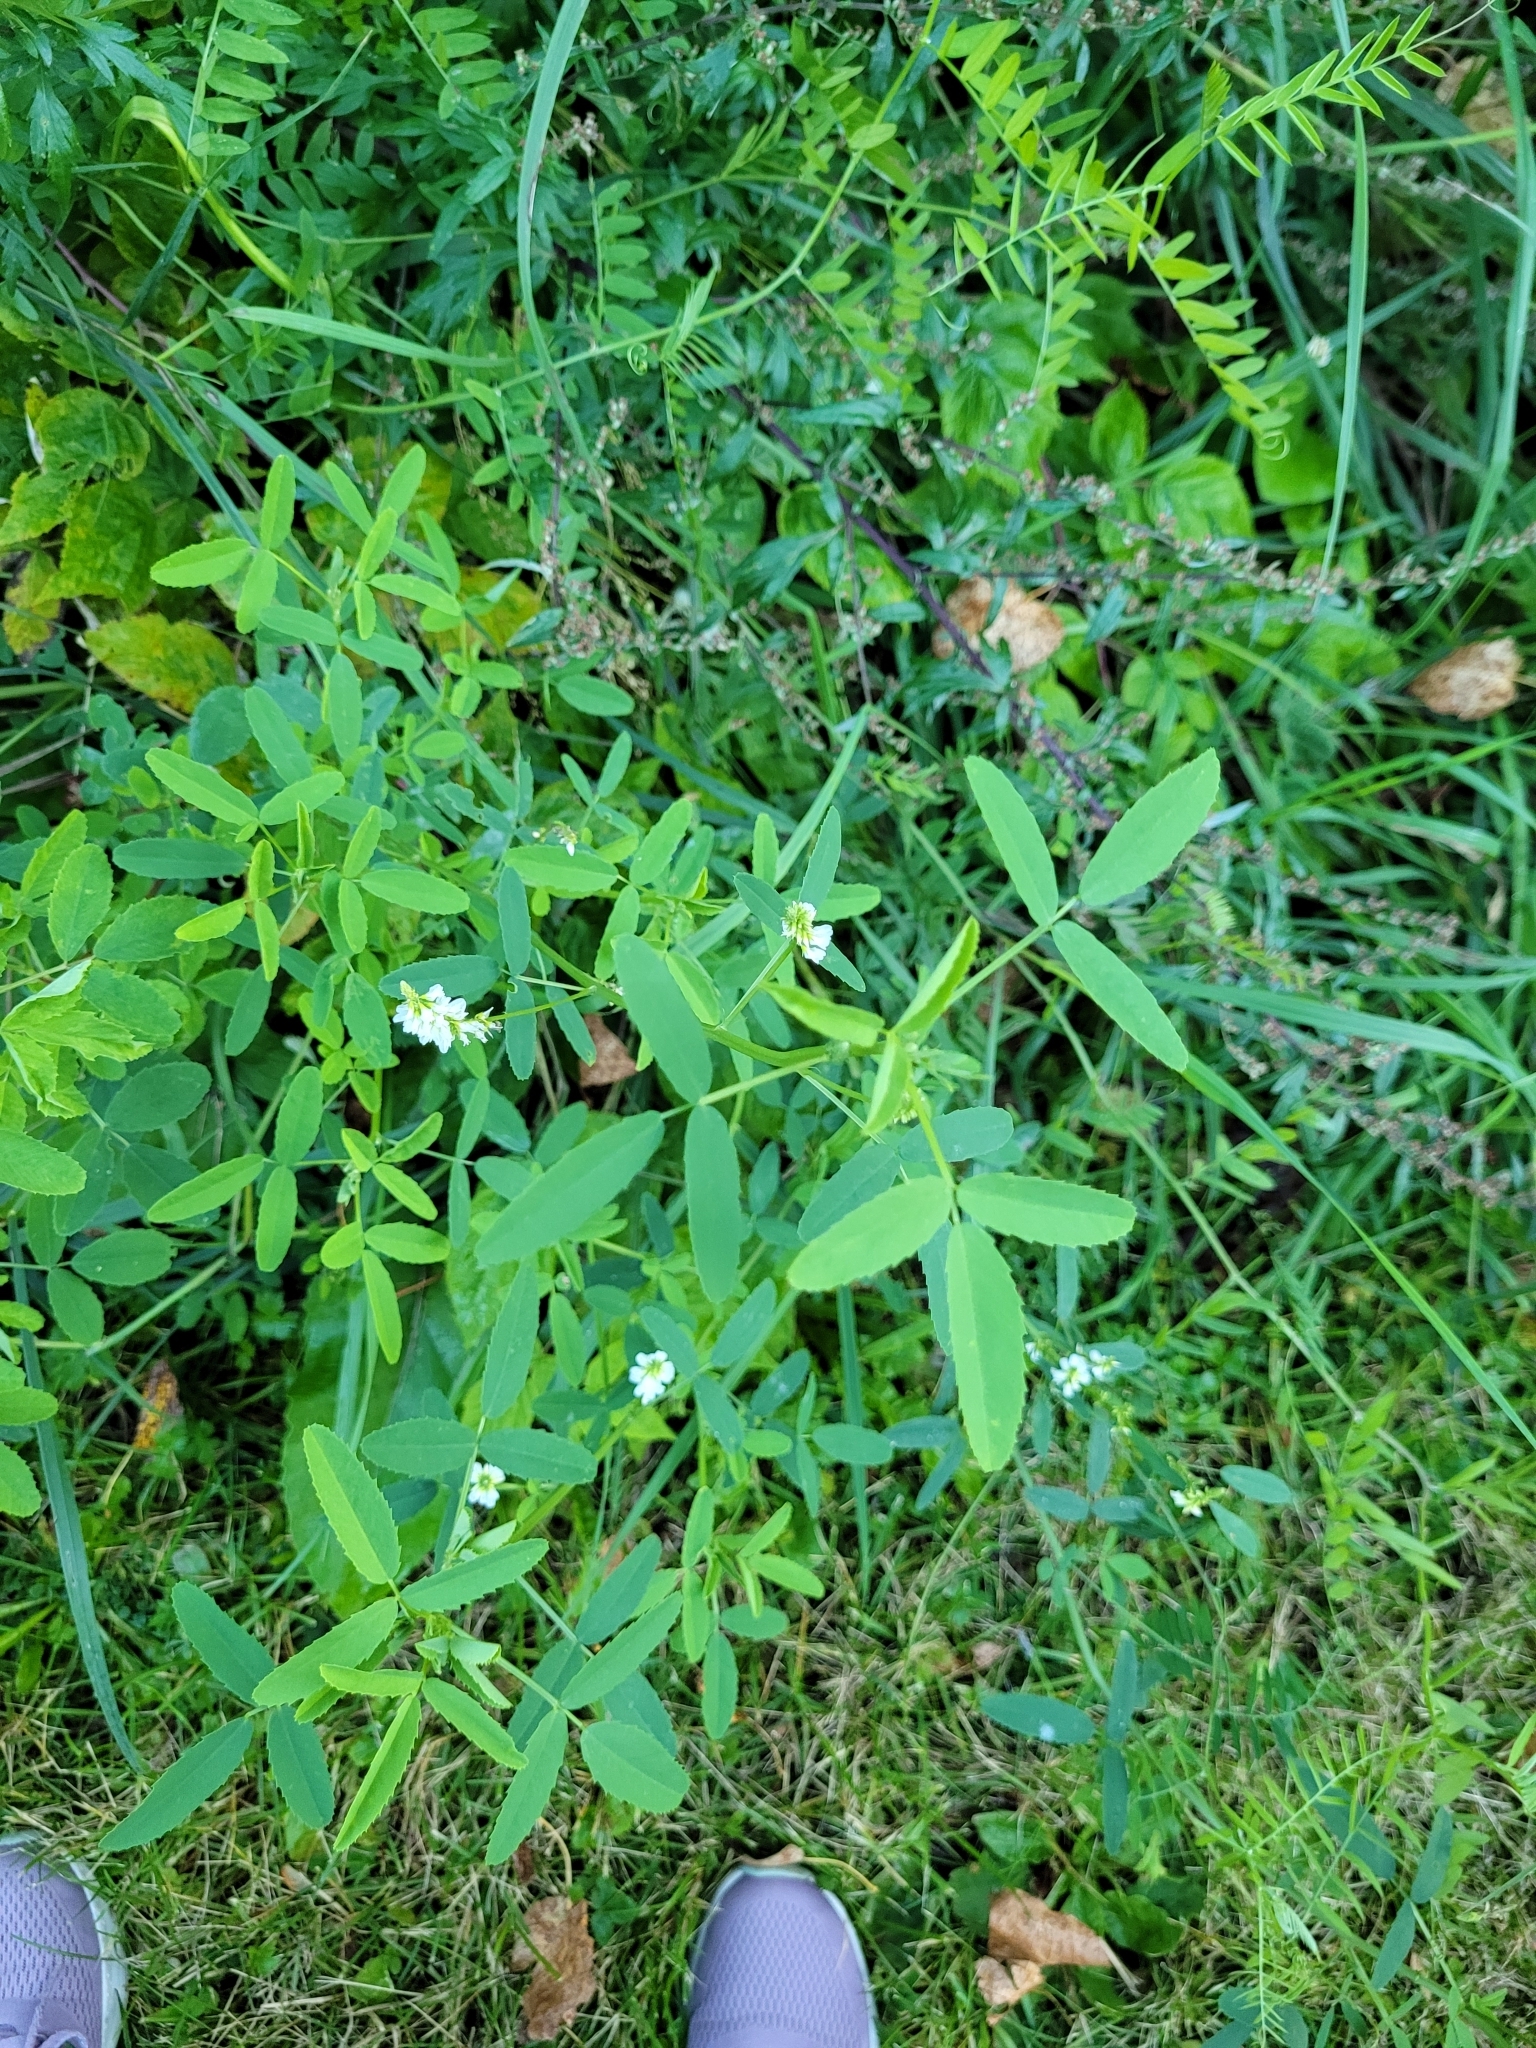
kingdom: Plantae
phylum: Tracheophyta
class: Magnoliopsida
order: Fabales
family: Fabaceae
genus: Melilotus
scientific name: Melilotus albus
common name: White melilot
